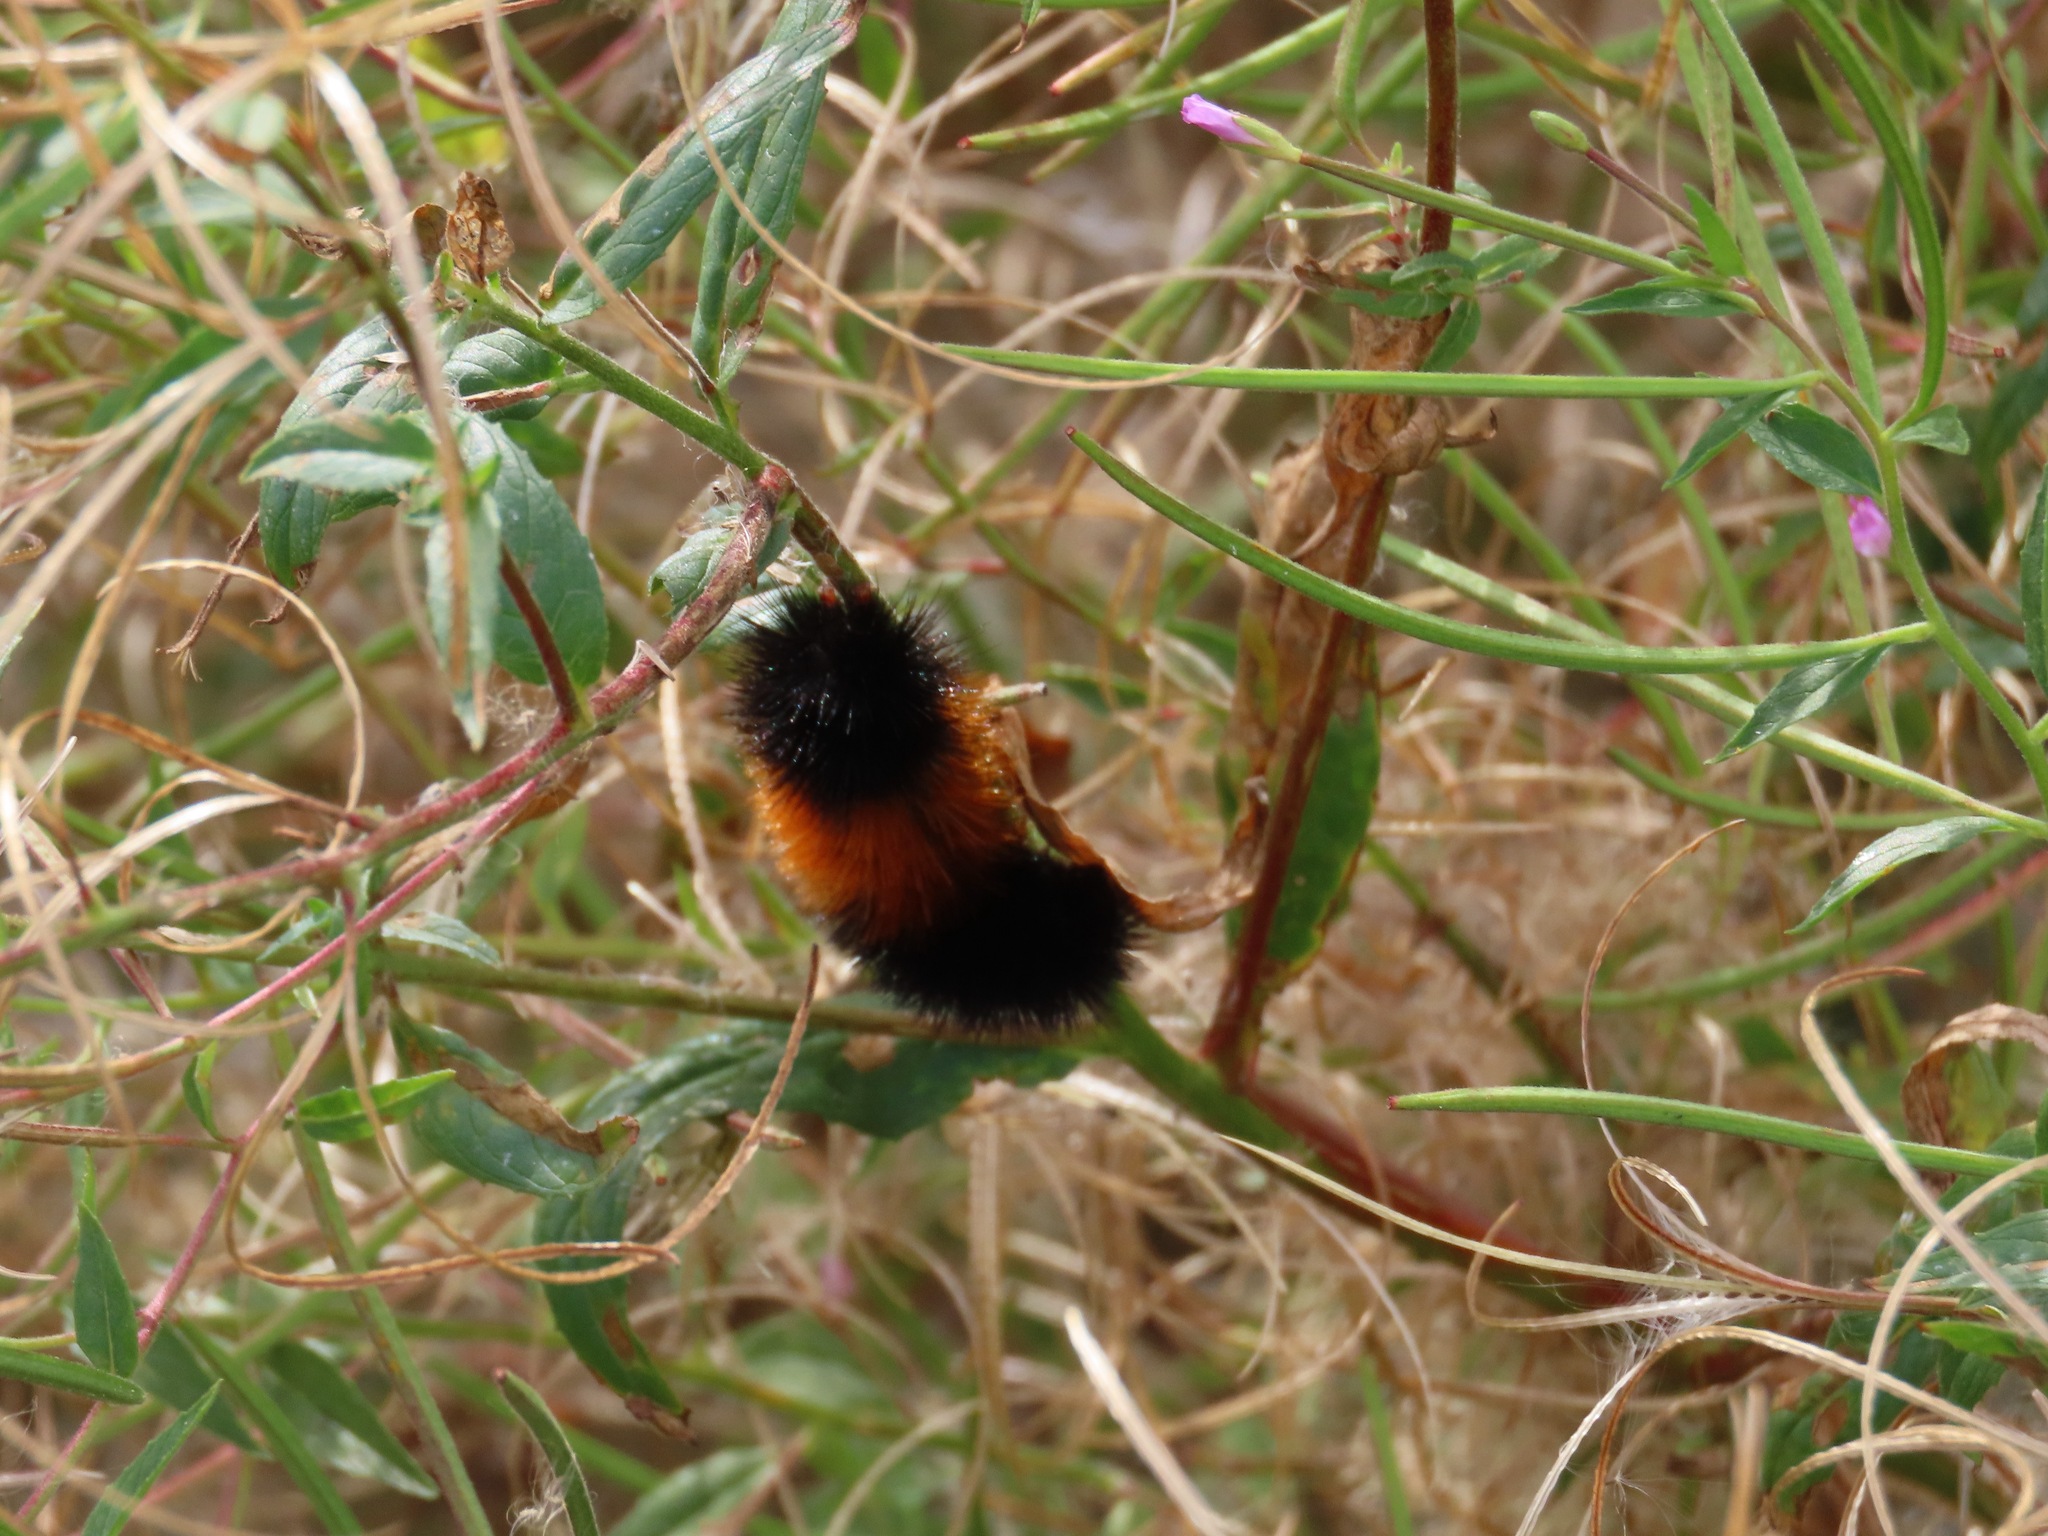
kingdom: Animalia
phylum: Arthropoda
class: Insecta
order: Lepidoptera
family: Erebidae
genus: Pyrrharctia
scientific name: Pyrrharctia isabella
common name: Isabella tiger moth
